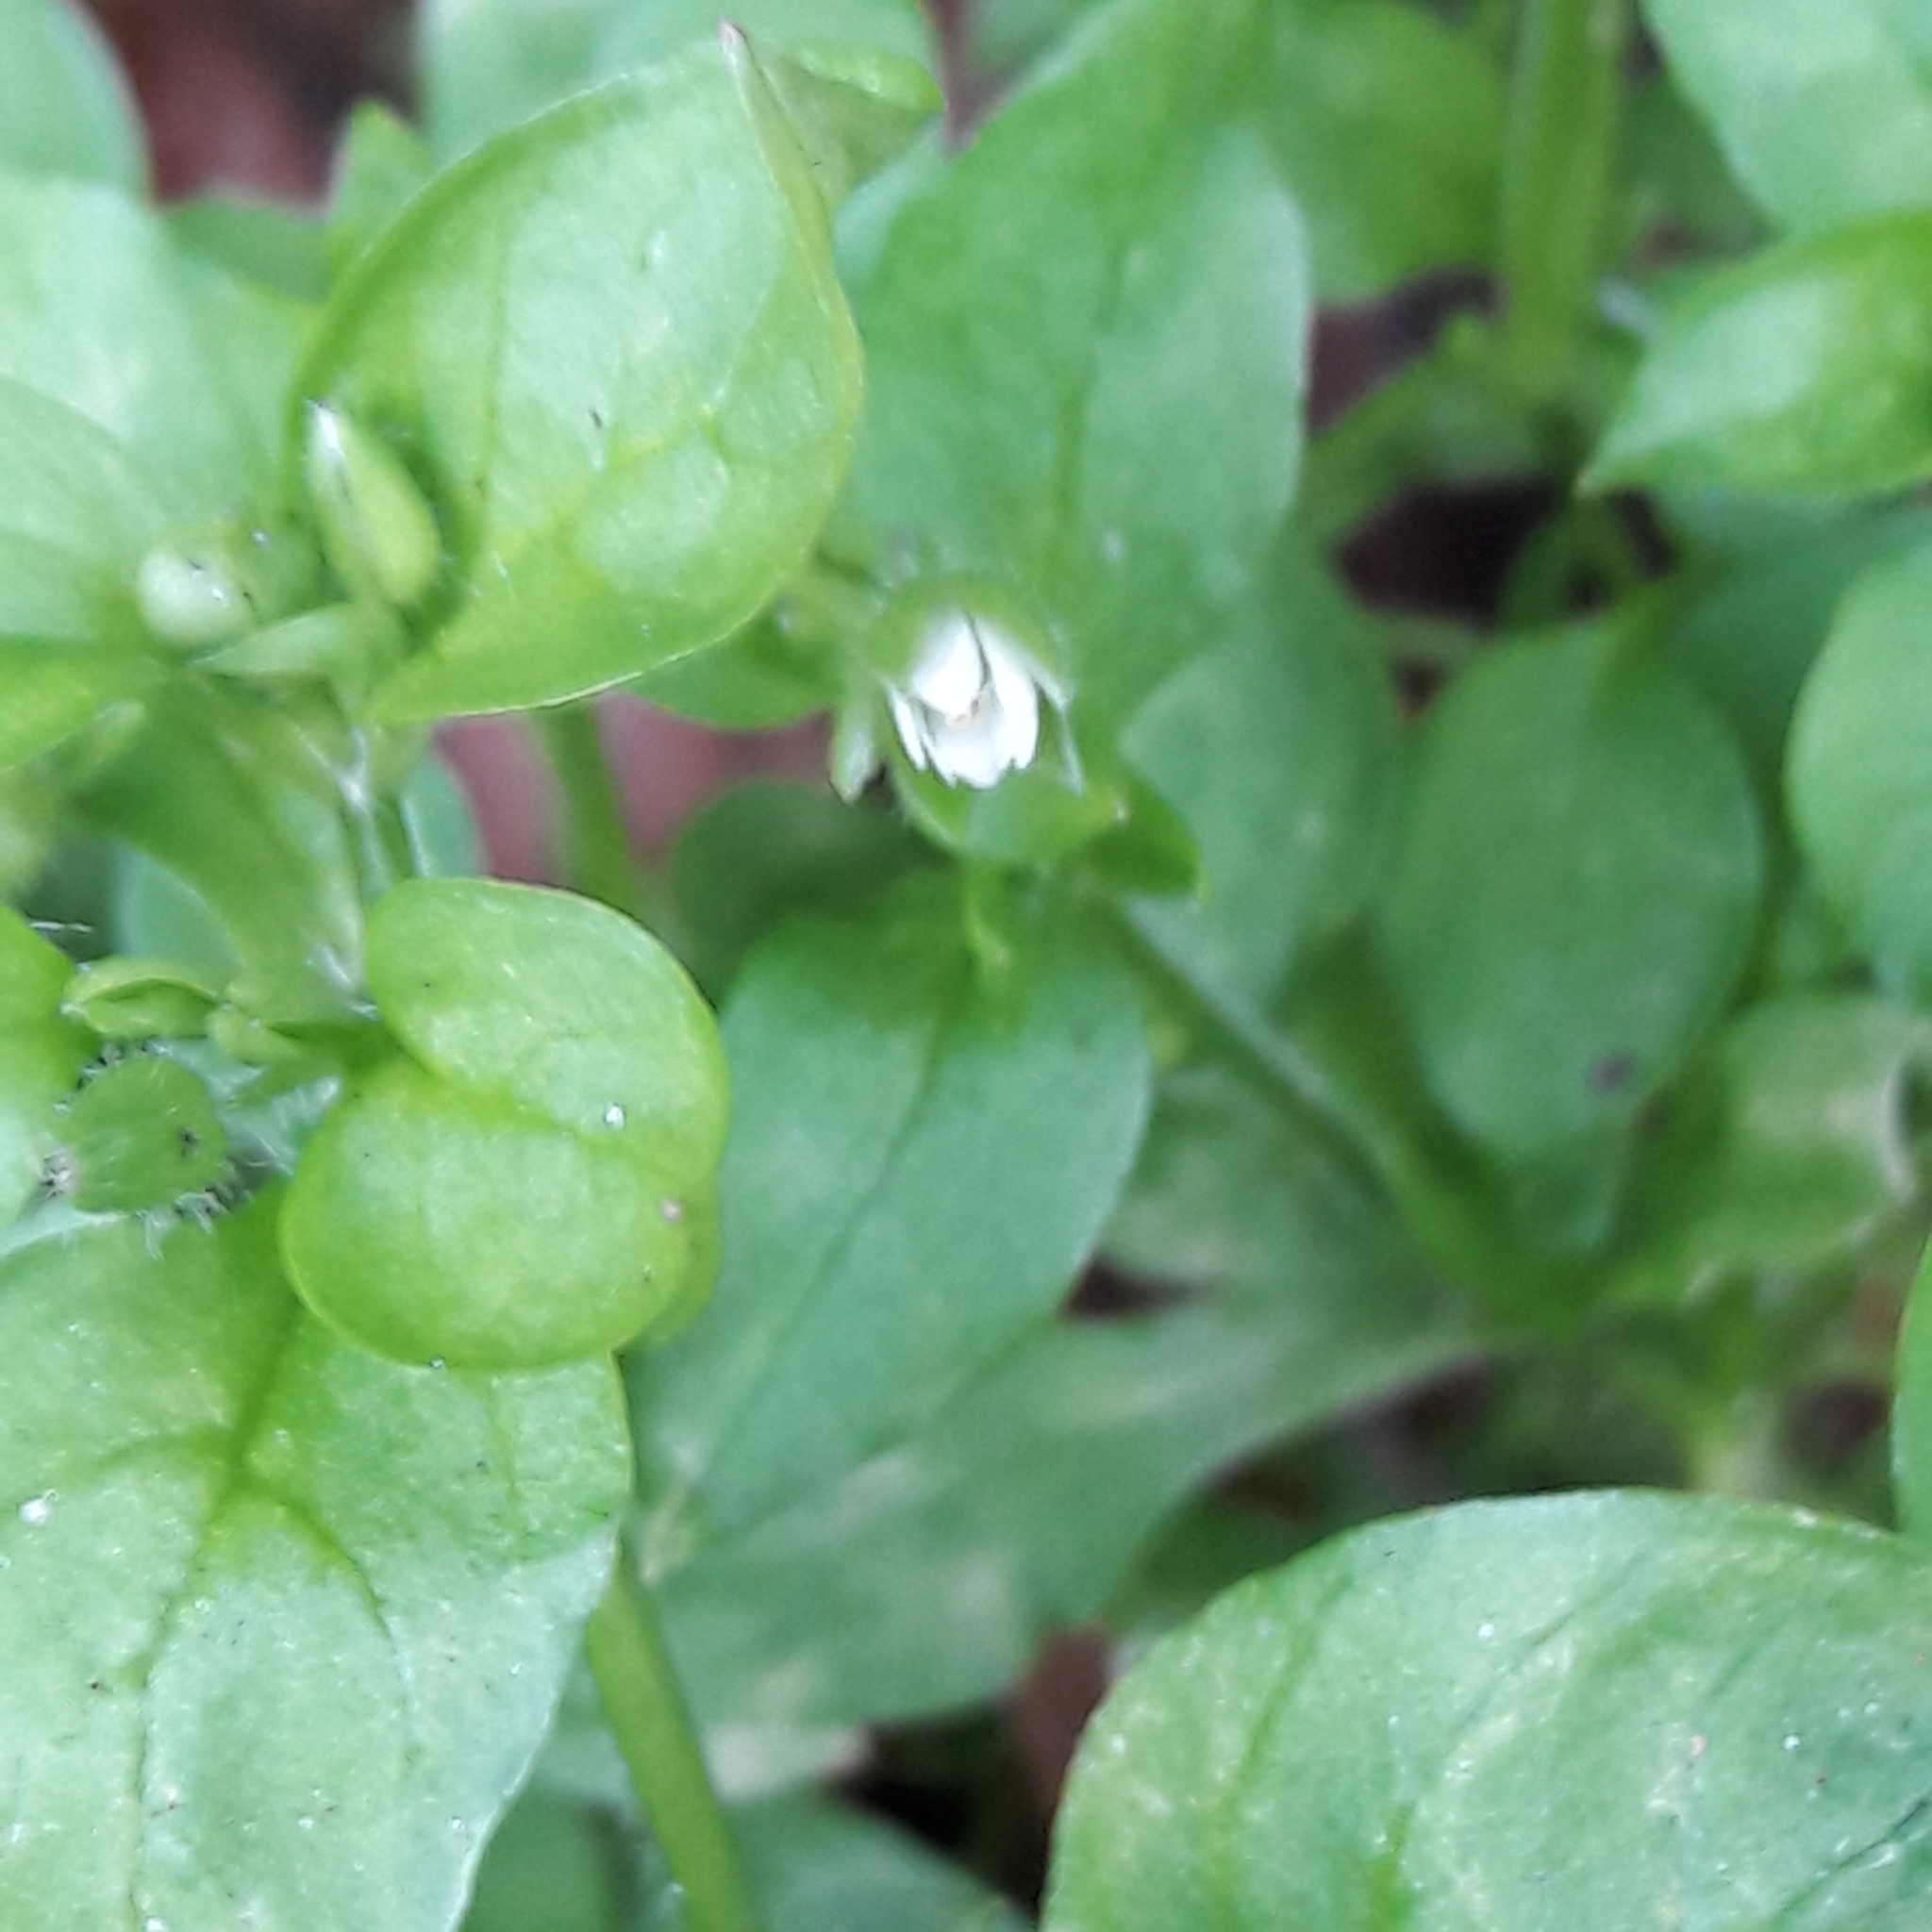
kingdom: Plantae
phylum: Tracheophyta
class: Magnoliopsida
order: Caryophyllales
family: Caryophyllaceae
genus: Stellaria
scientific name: Stellaria media
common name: Common chickweed
